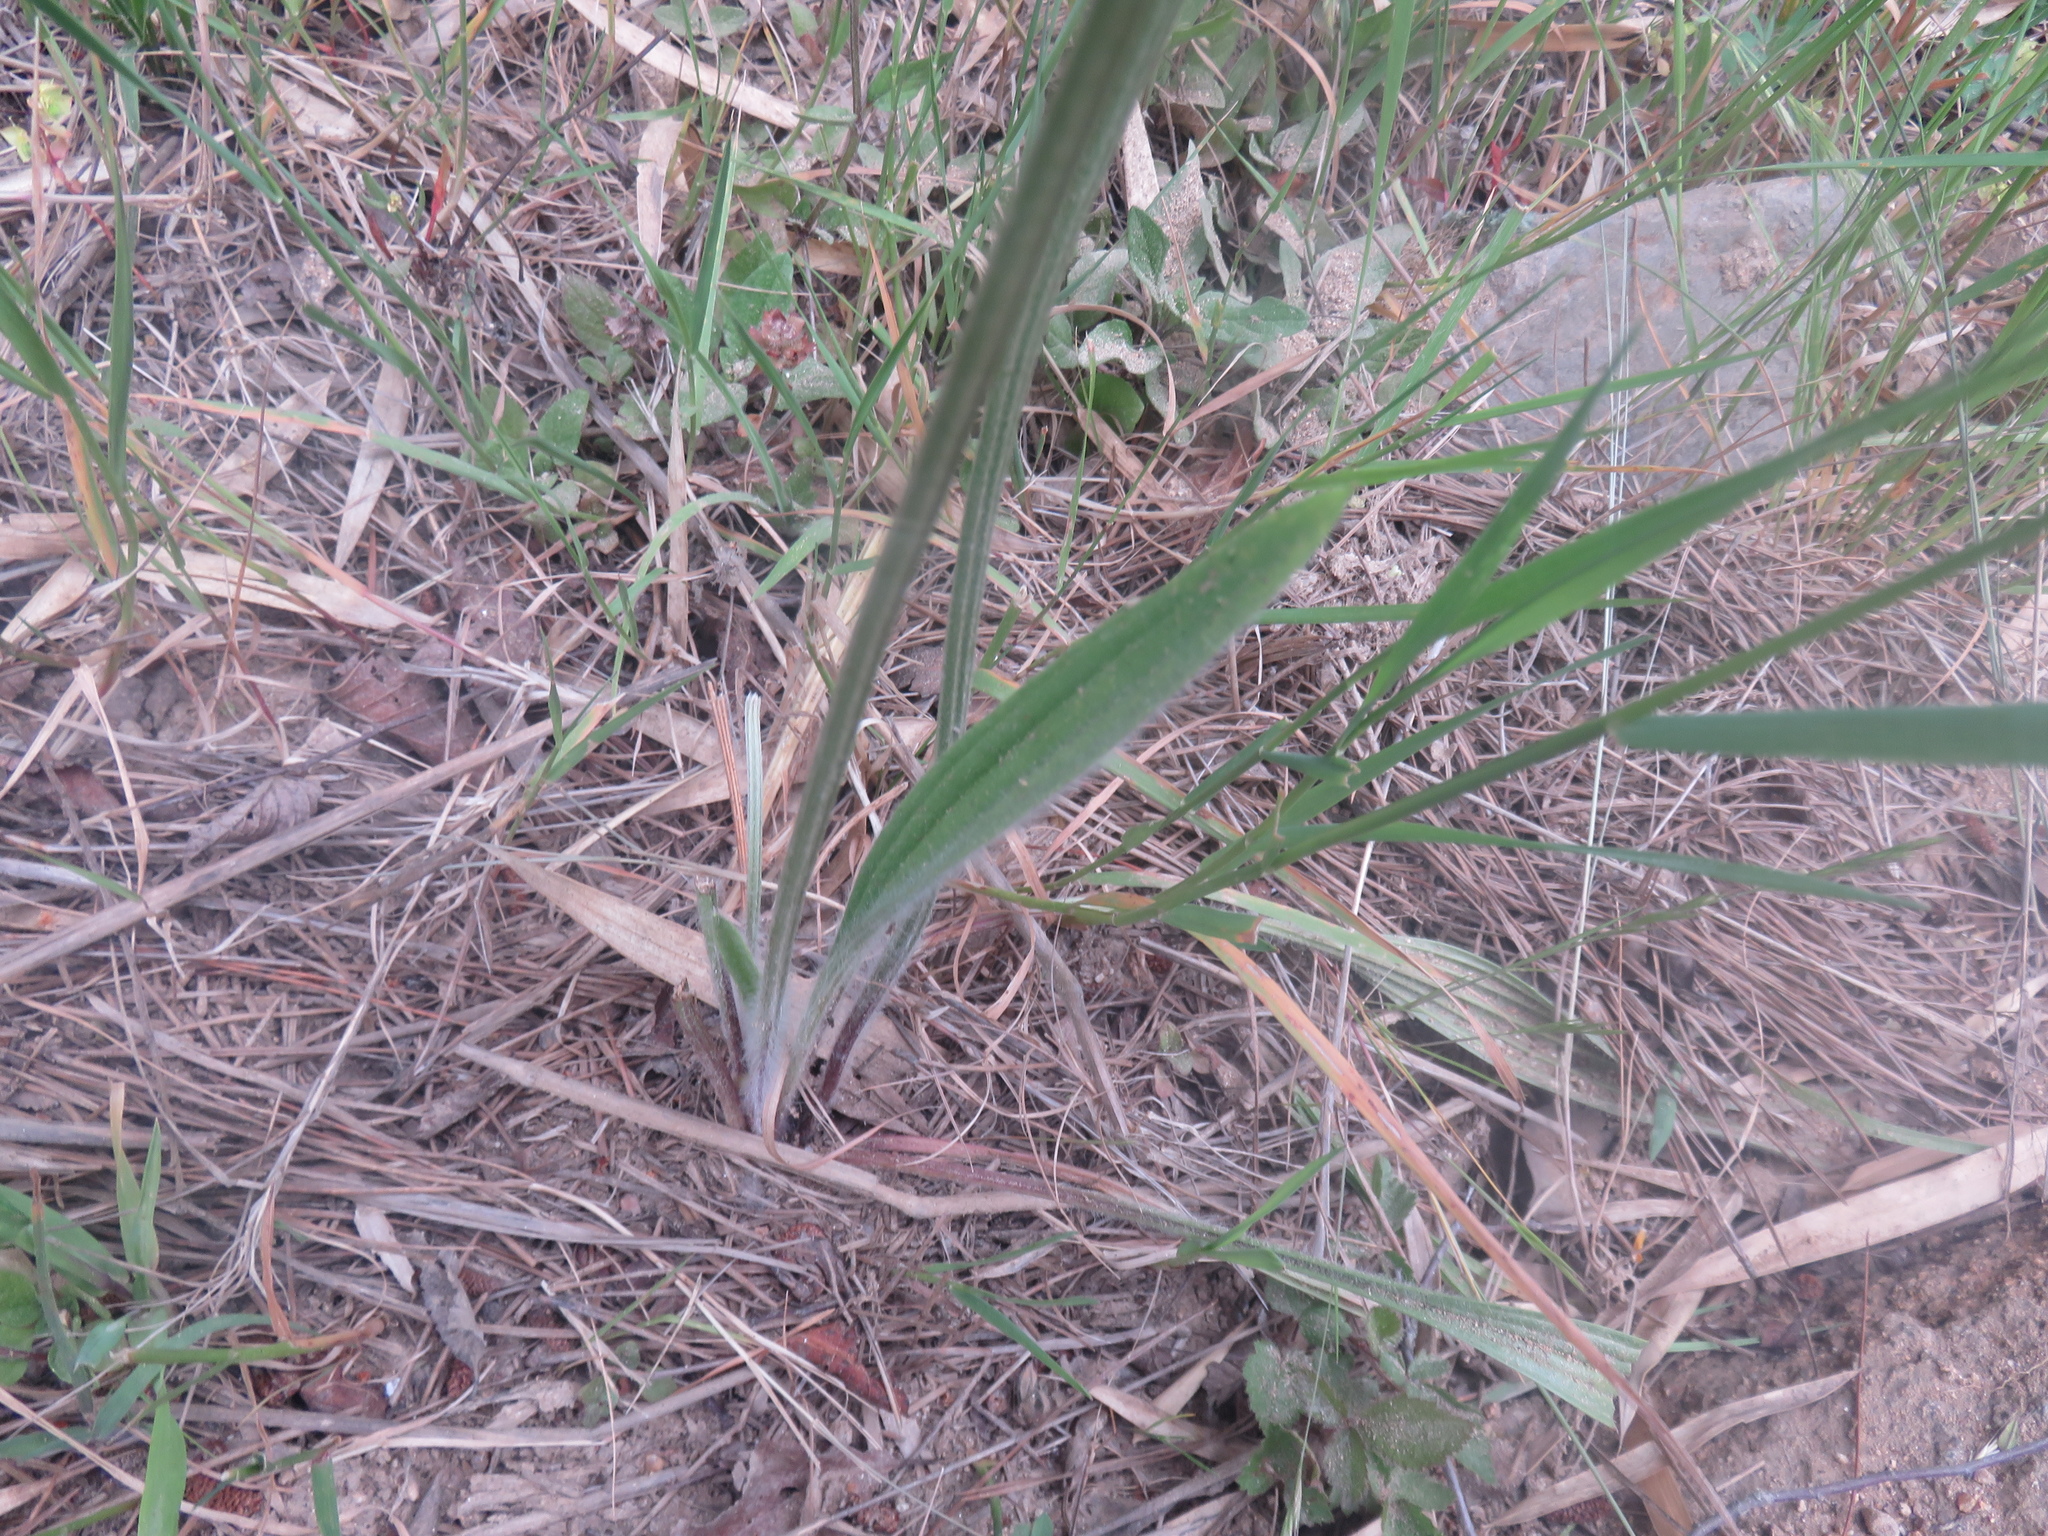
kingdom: Plantae
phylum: Tracheophyta
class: Magnoliopsida
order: Lamiales
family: Plantaginaceae
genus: Plantago
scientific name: Plantago lanceolata
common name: Ribwort plantain
